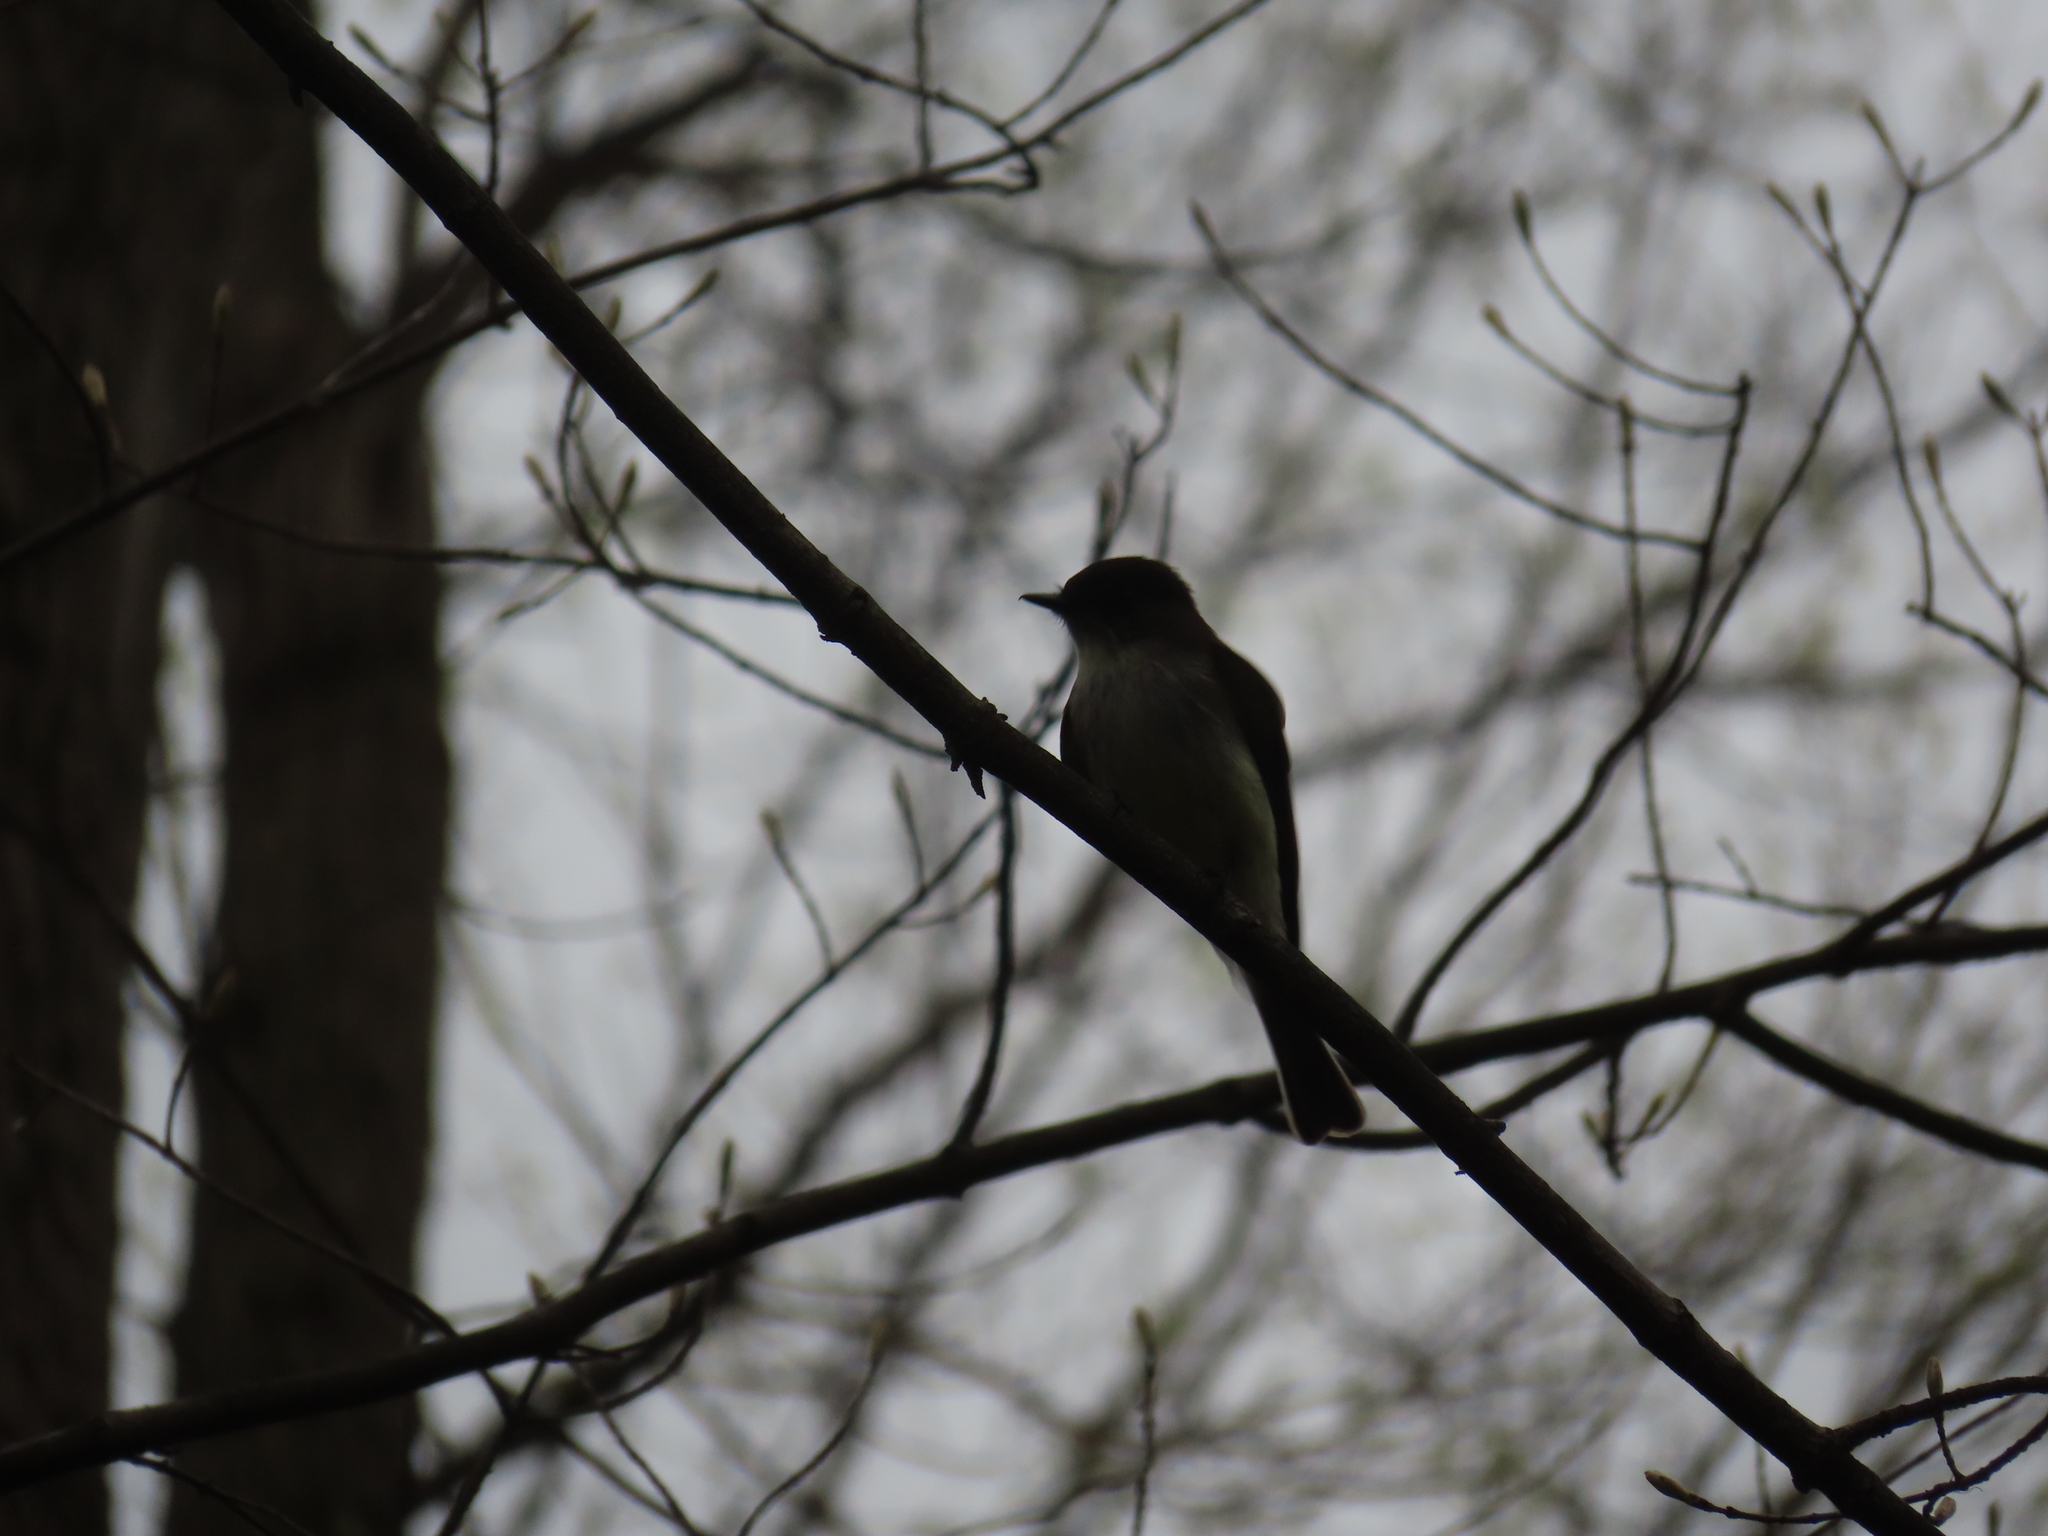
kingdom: Animalia
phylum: Chordata
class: Aves
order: Passeriformes
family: Tyrannidae
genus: Sayornis
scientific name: Sayornis phoebe
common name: Eastern phoebe
